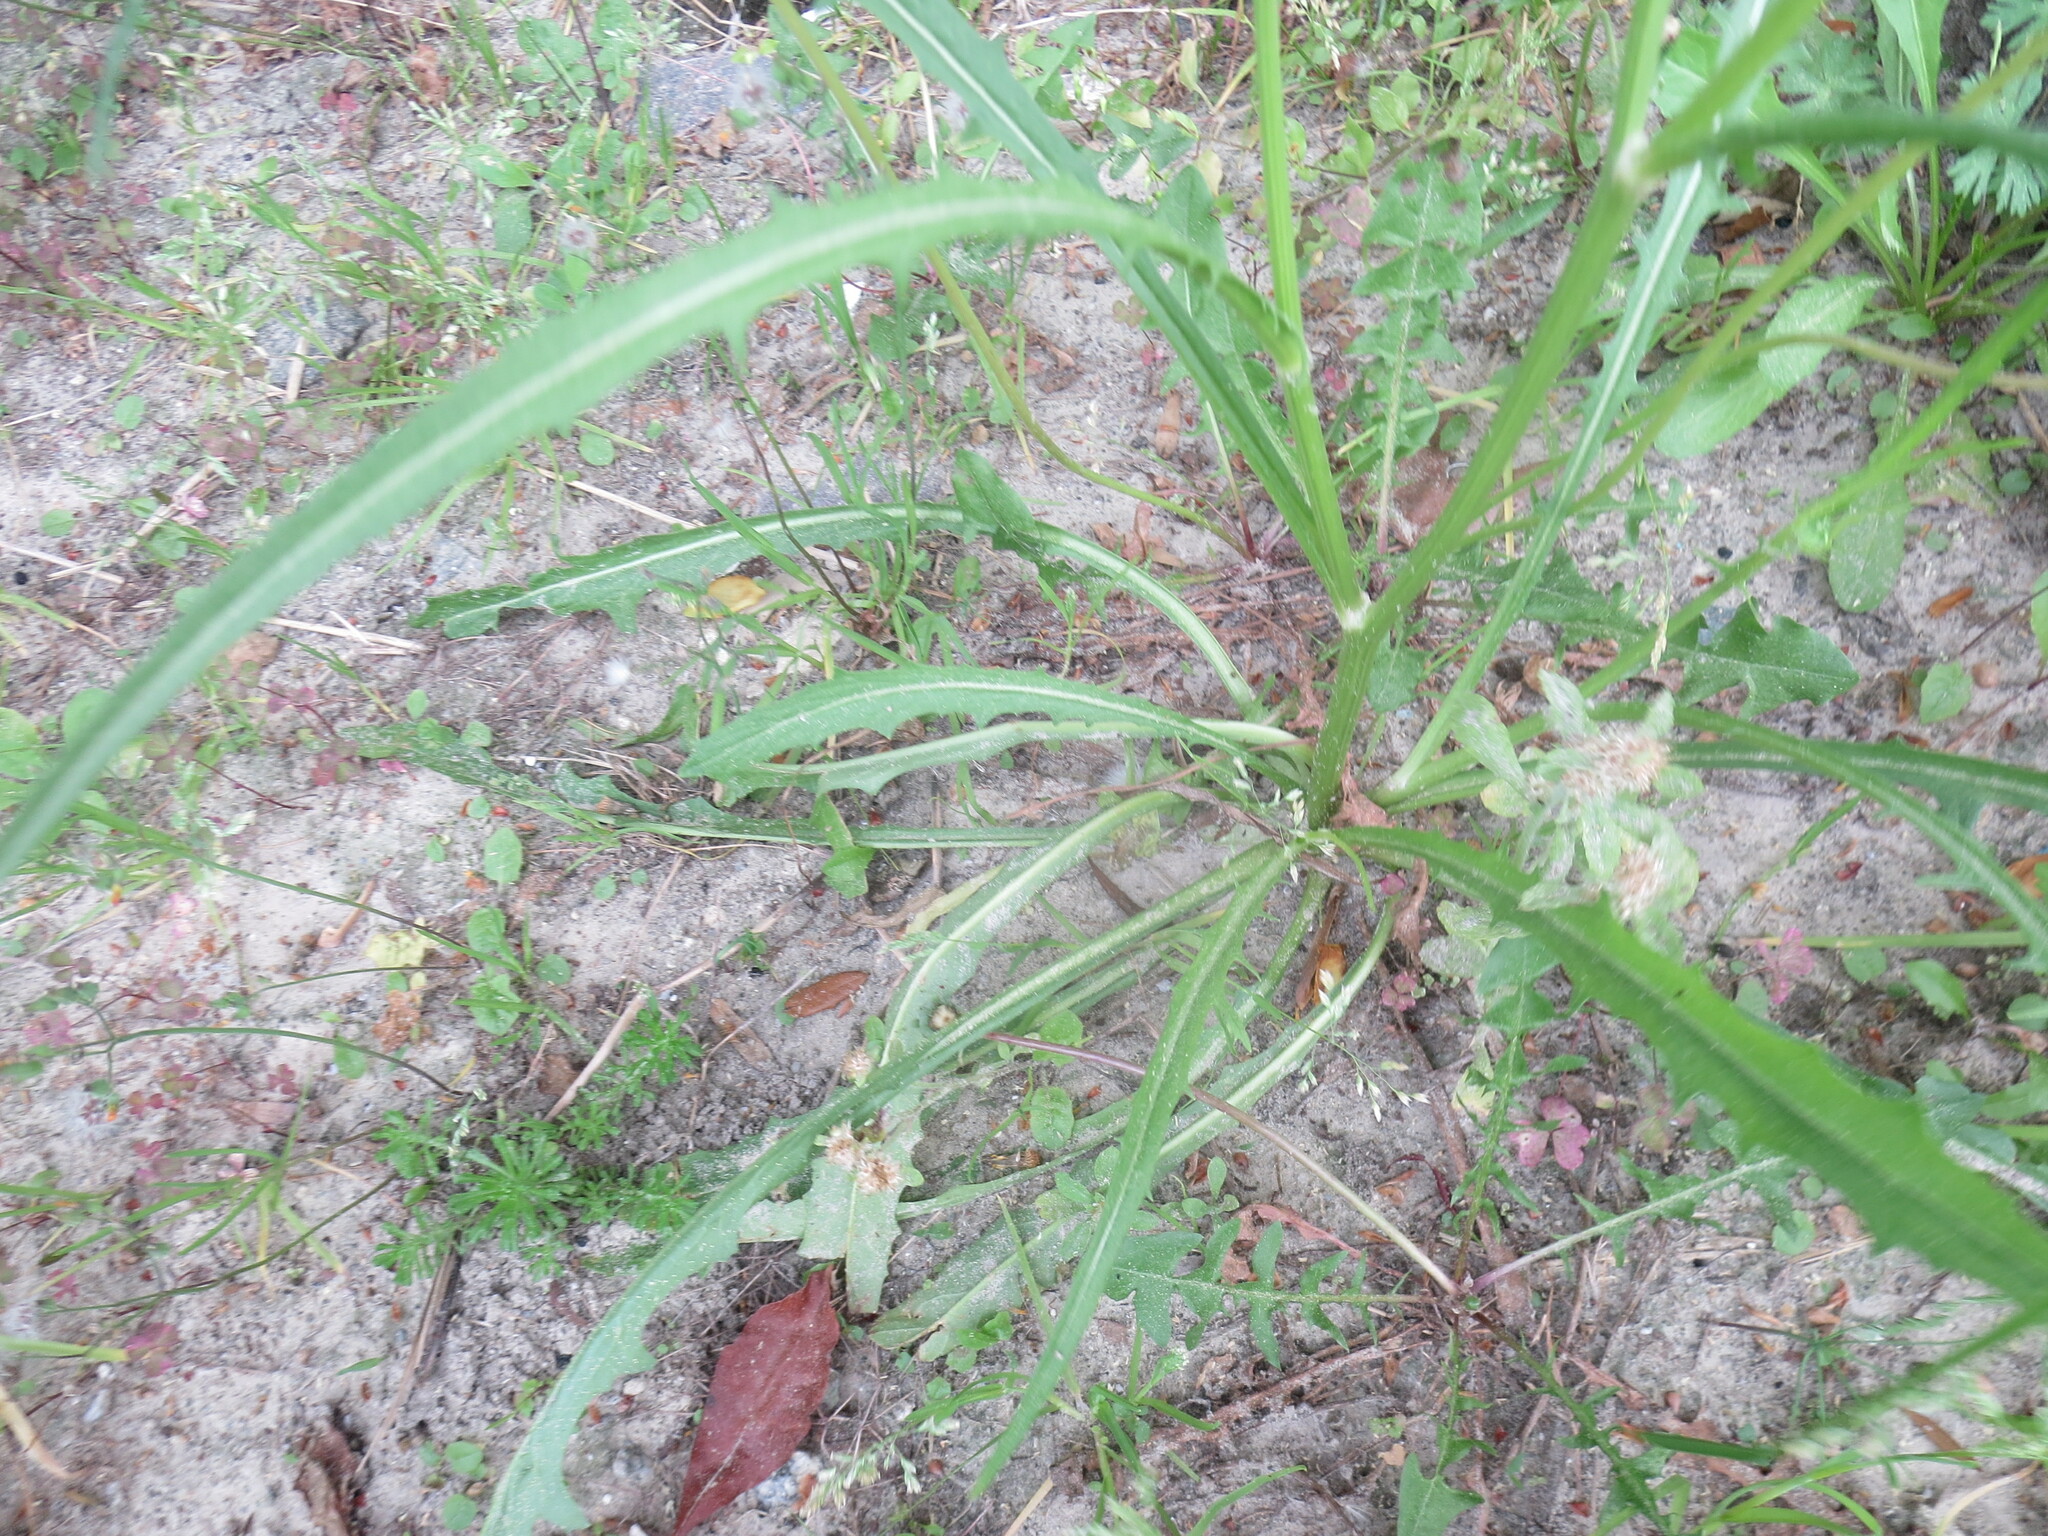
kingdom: Plantae
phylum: Tracheophyta
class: Magnoliopsida
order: Asterales
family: Asteraceae
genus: Pyrrhopappus
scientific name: Pyrrhopappus carolinianus
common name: Carolina desert-chicory
